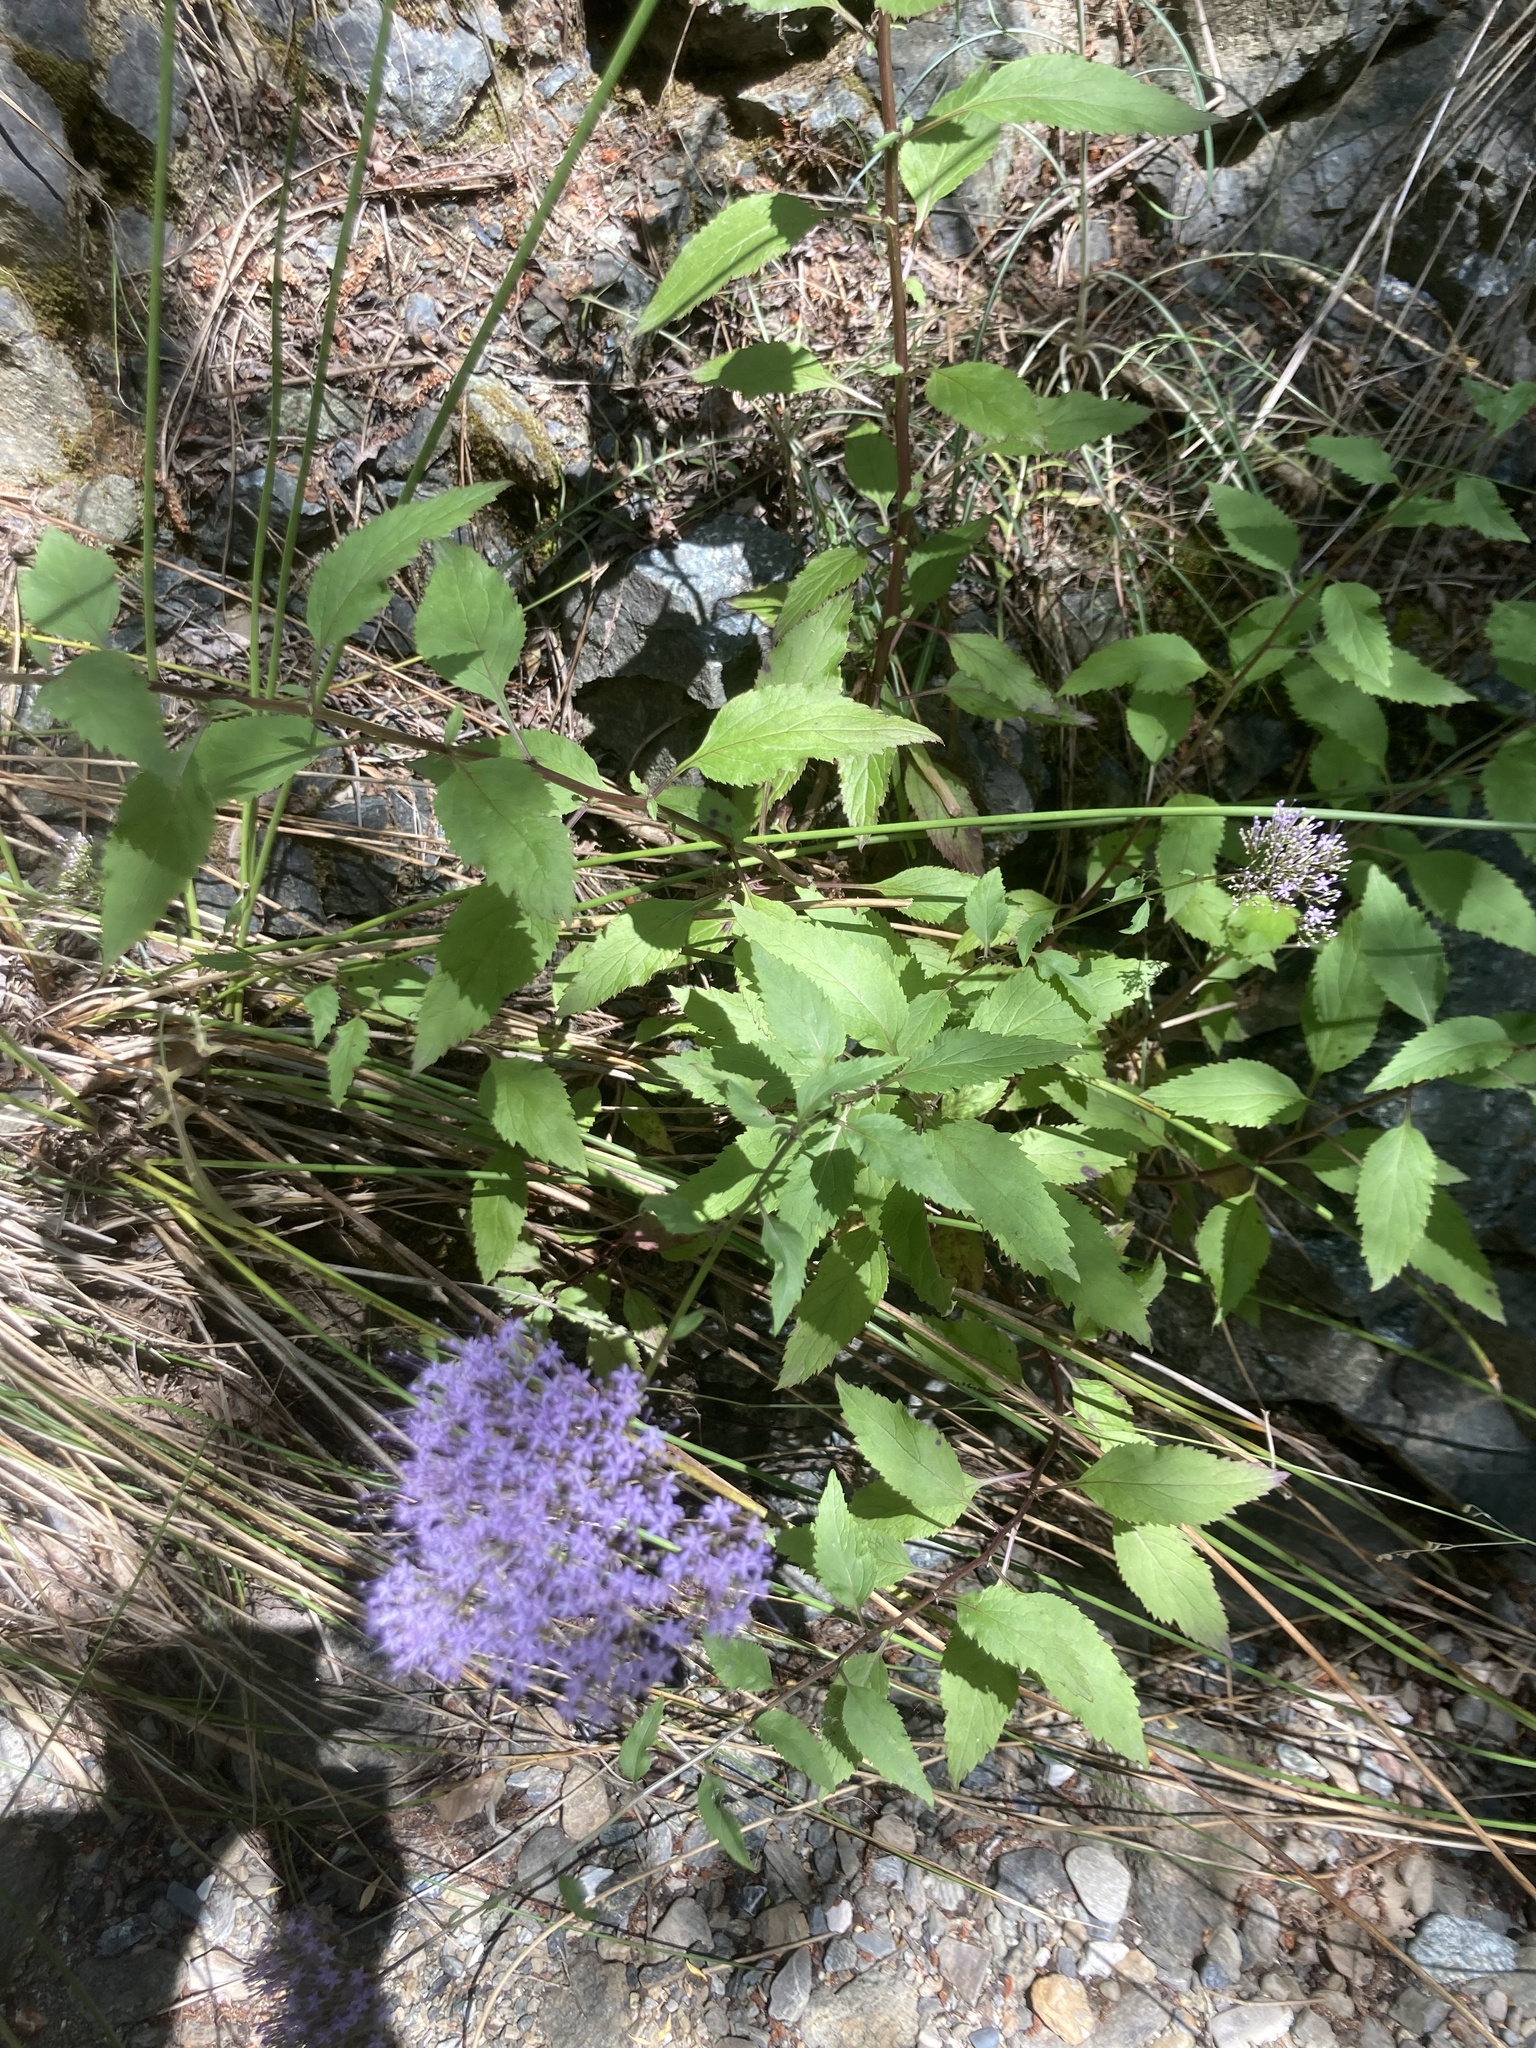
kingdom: Plantae
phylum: Tracheophyta
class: Magnoliopsida
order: Asterales
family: Campanulaceae
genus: Trachelium
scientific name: Trachelium caeruleum
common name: Throatwort
